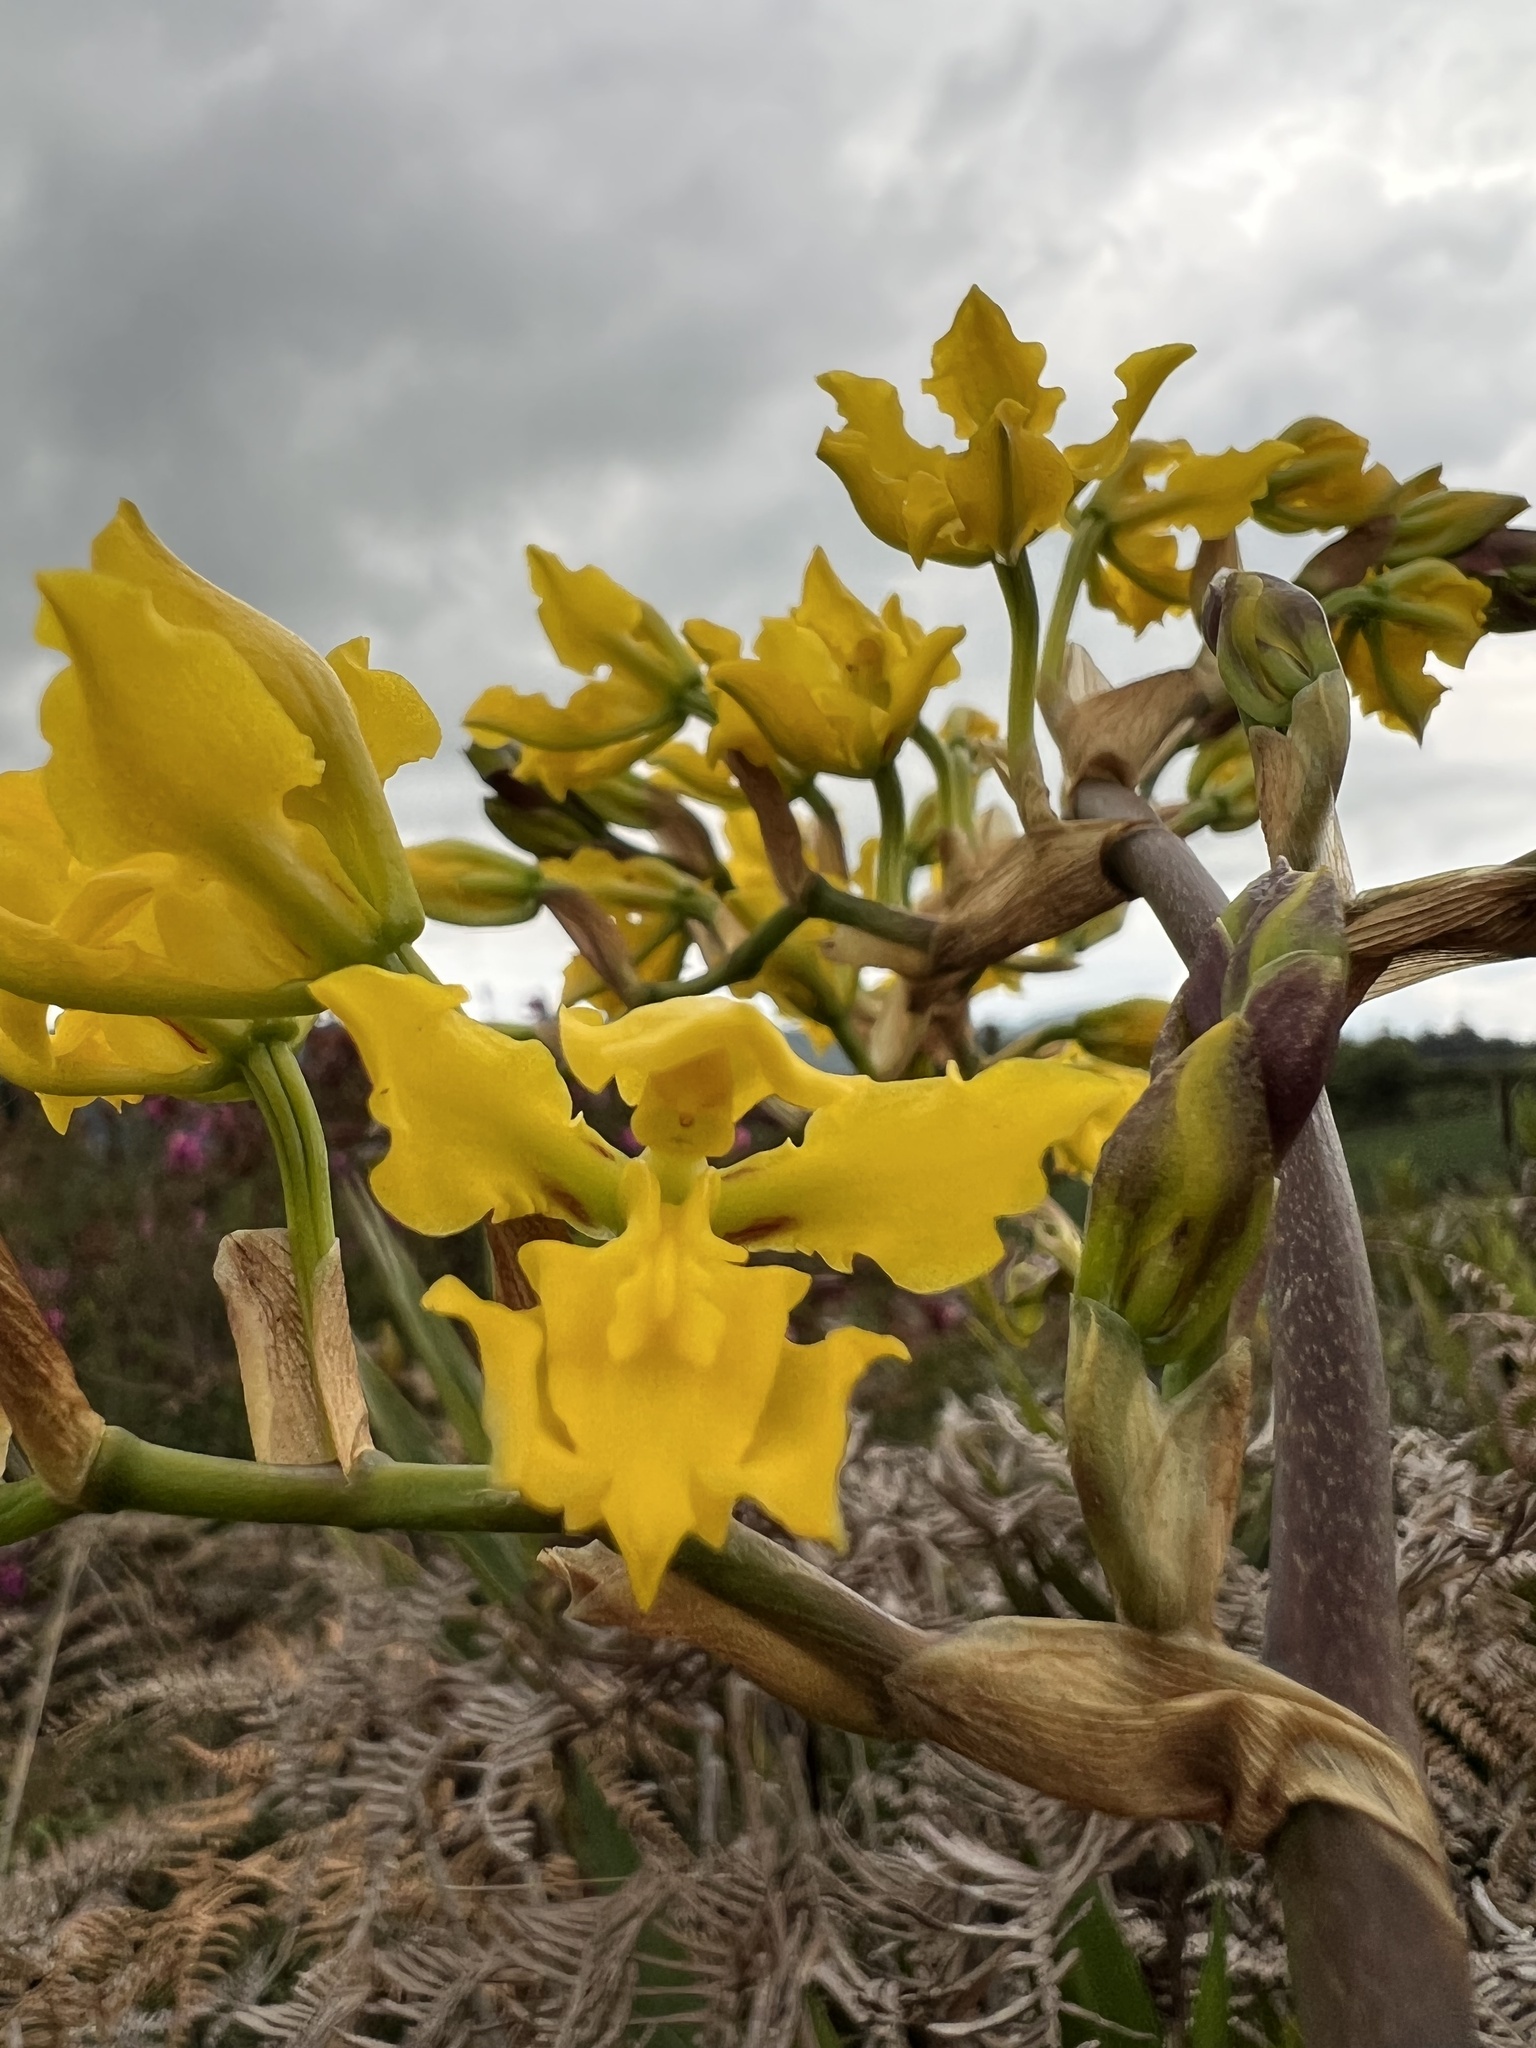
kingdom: Plantae
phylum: Tracheophyta
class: Liliopsida
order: Asparagales
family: Orchidaceae
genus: Cyrtochilum
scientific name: Cyrtochilum revolutum
